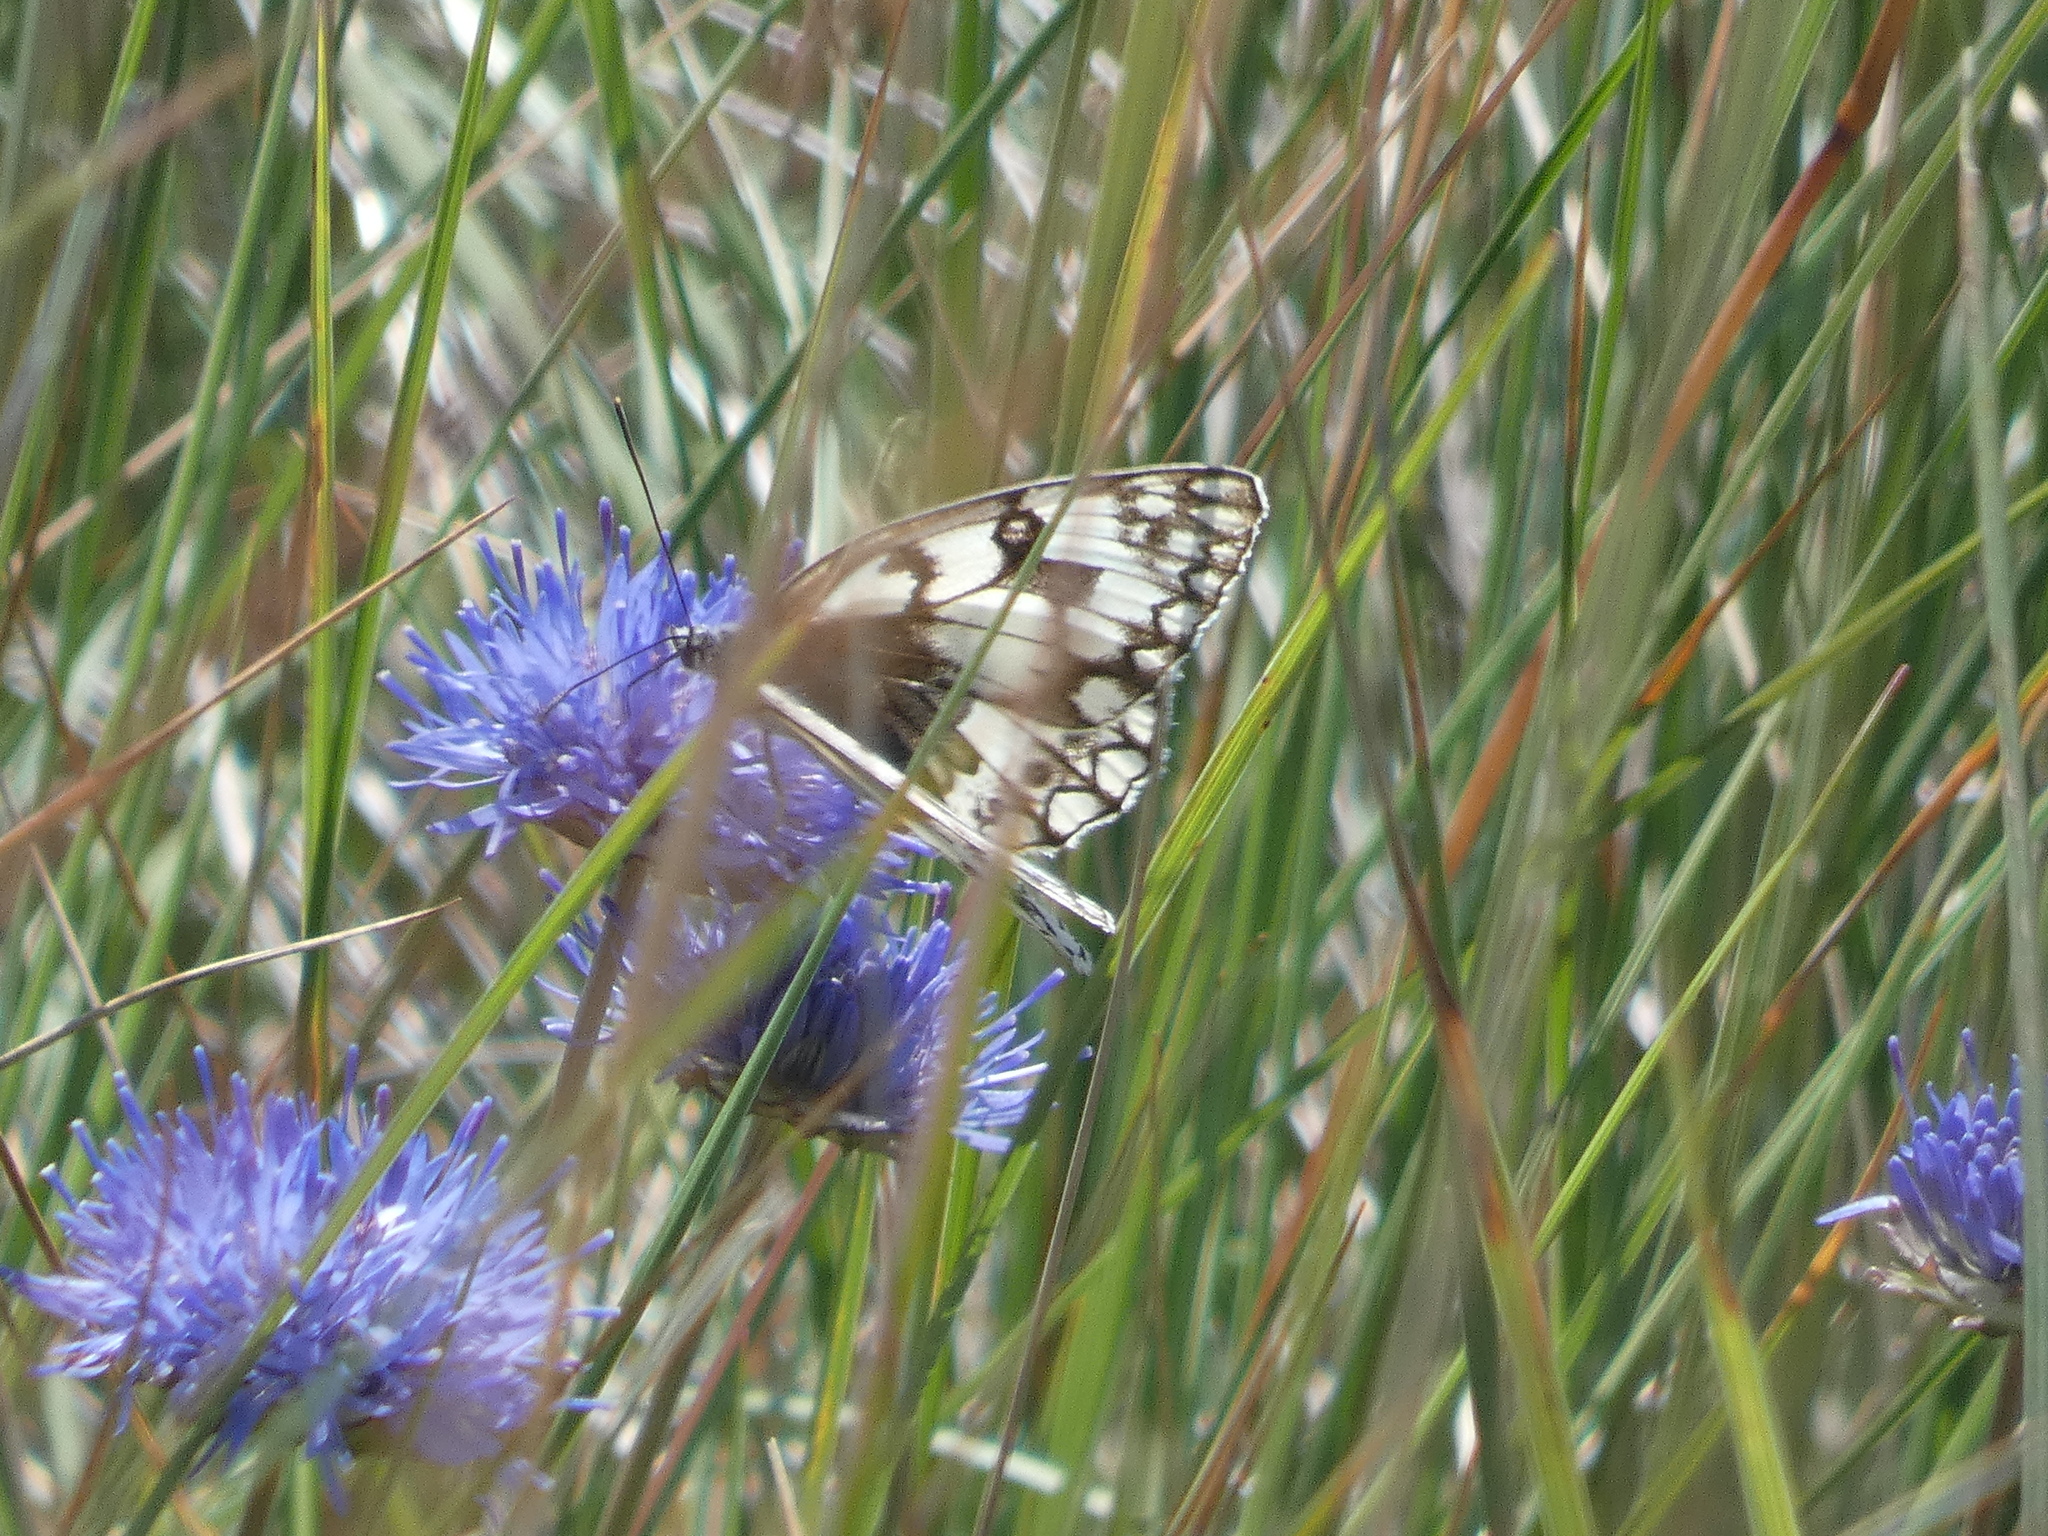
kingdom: Animalia
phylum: Arthropoda
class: Insecta
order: Lepidoptera
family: Nymphalidae
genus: Melanargia
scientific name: Melanargia japygia
